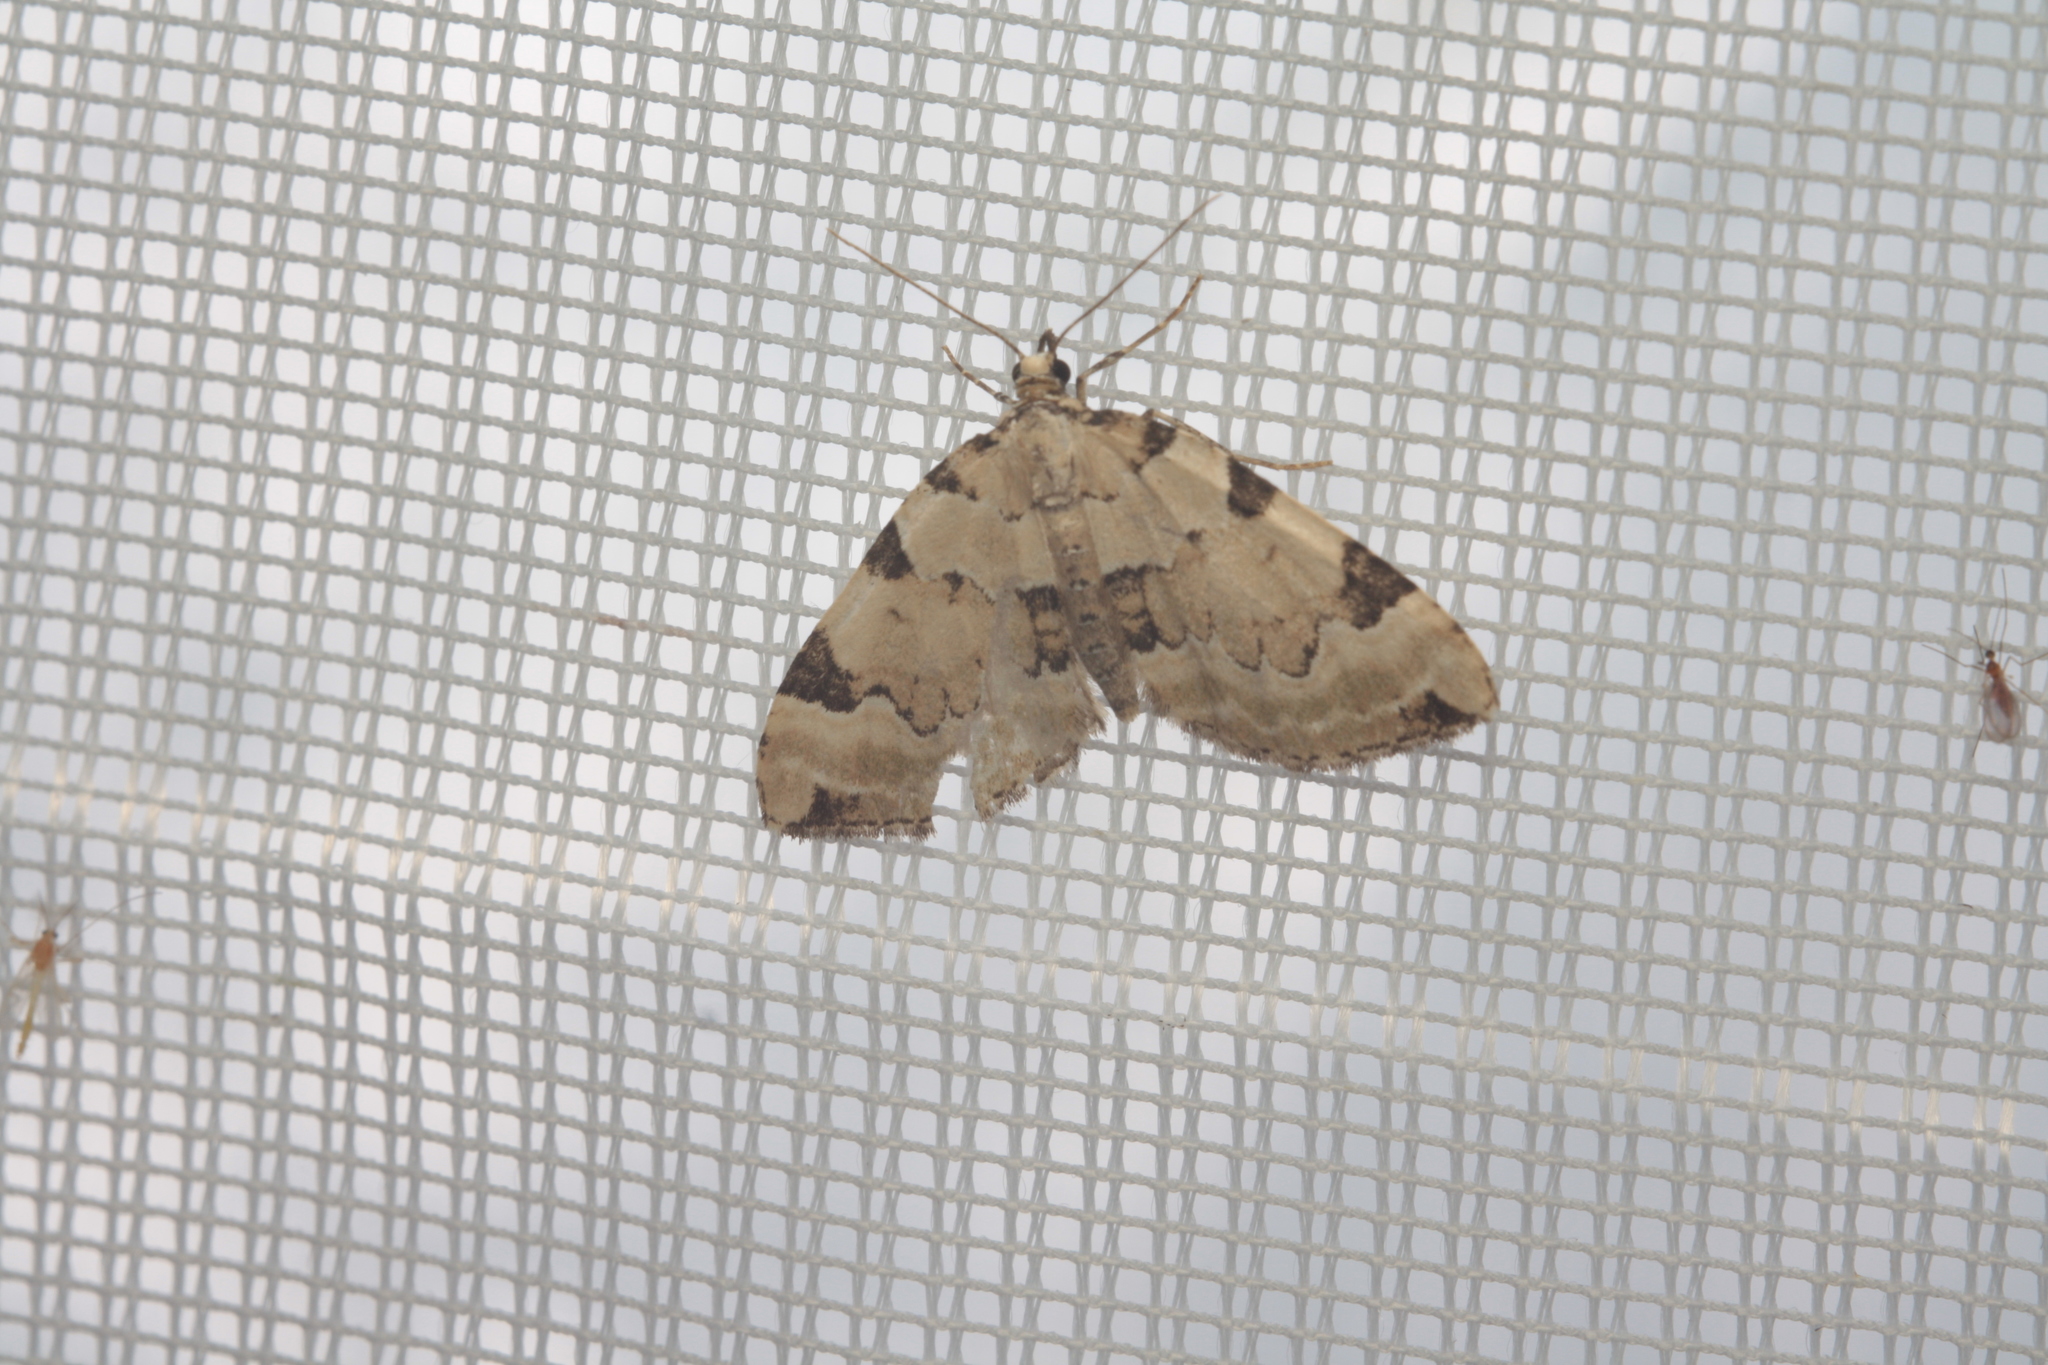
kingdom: Animalia
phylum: Arthropoda
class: Insecta
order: Lepidoptera
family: Geometridae
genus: Colostygia
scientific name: Colostygia pectinataria
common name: Green carpet
